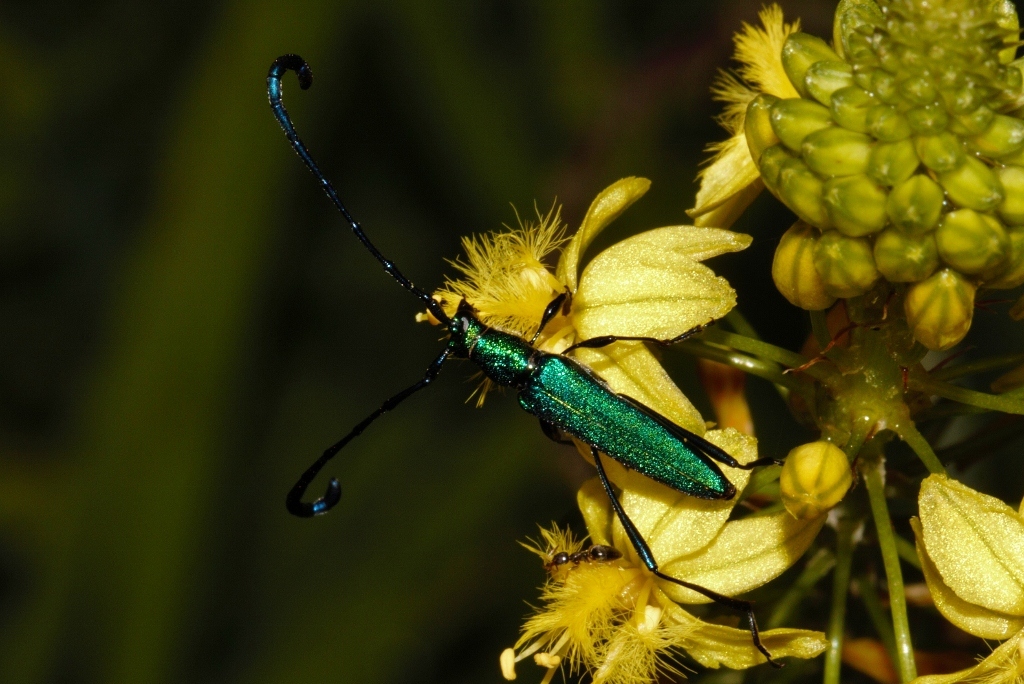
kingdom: Animalia
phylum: Arthropoda
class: Insecta
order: Coleoptera
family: Cerambycidae
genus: Hypocrites
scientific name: Hypocrites
